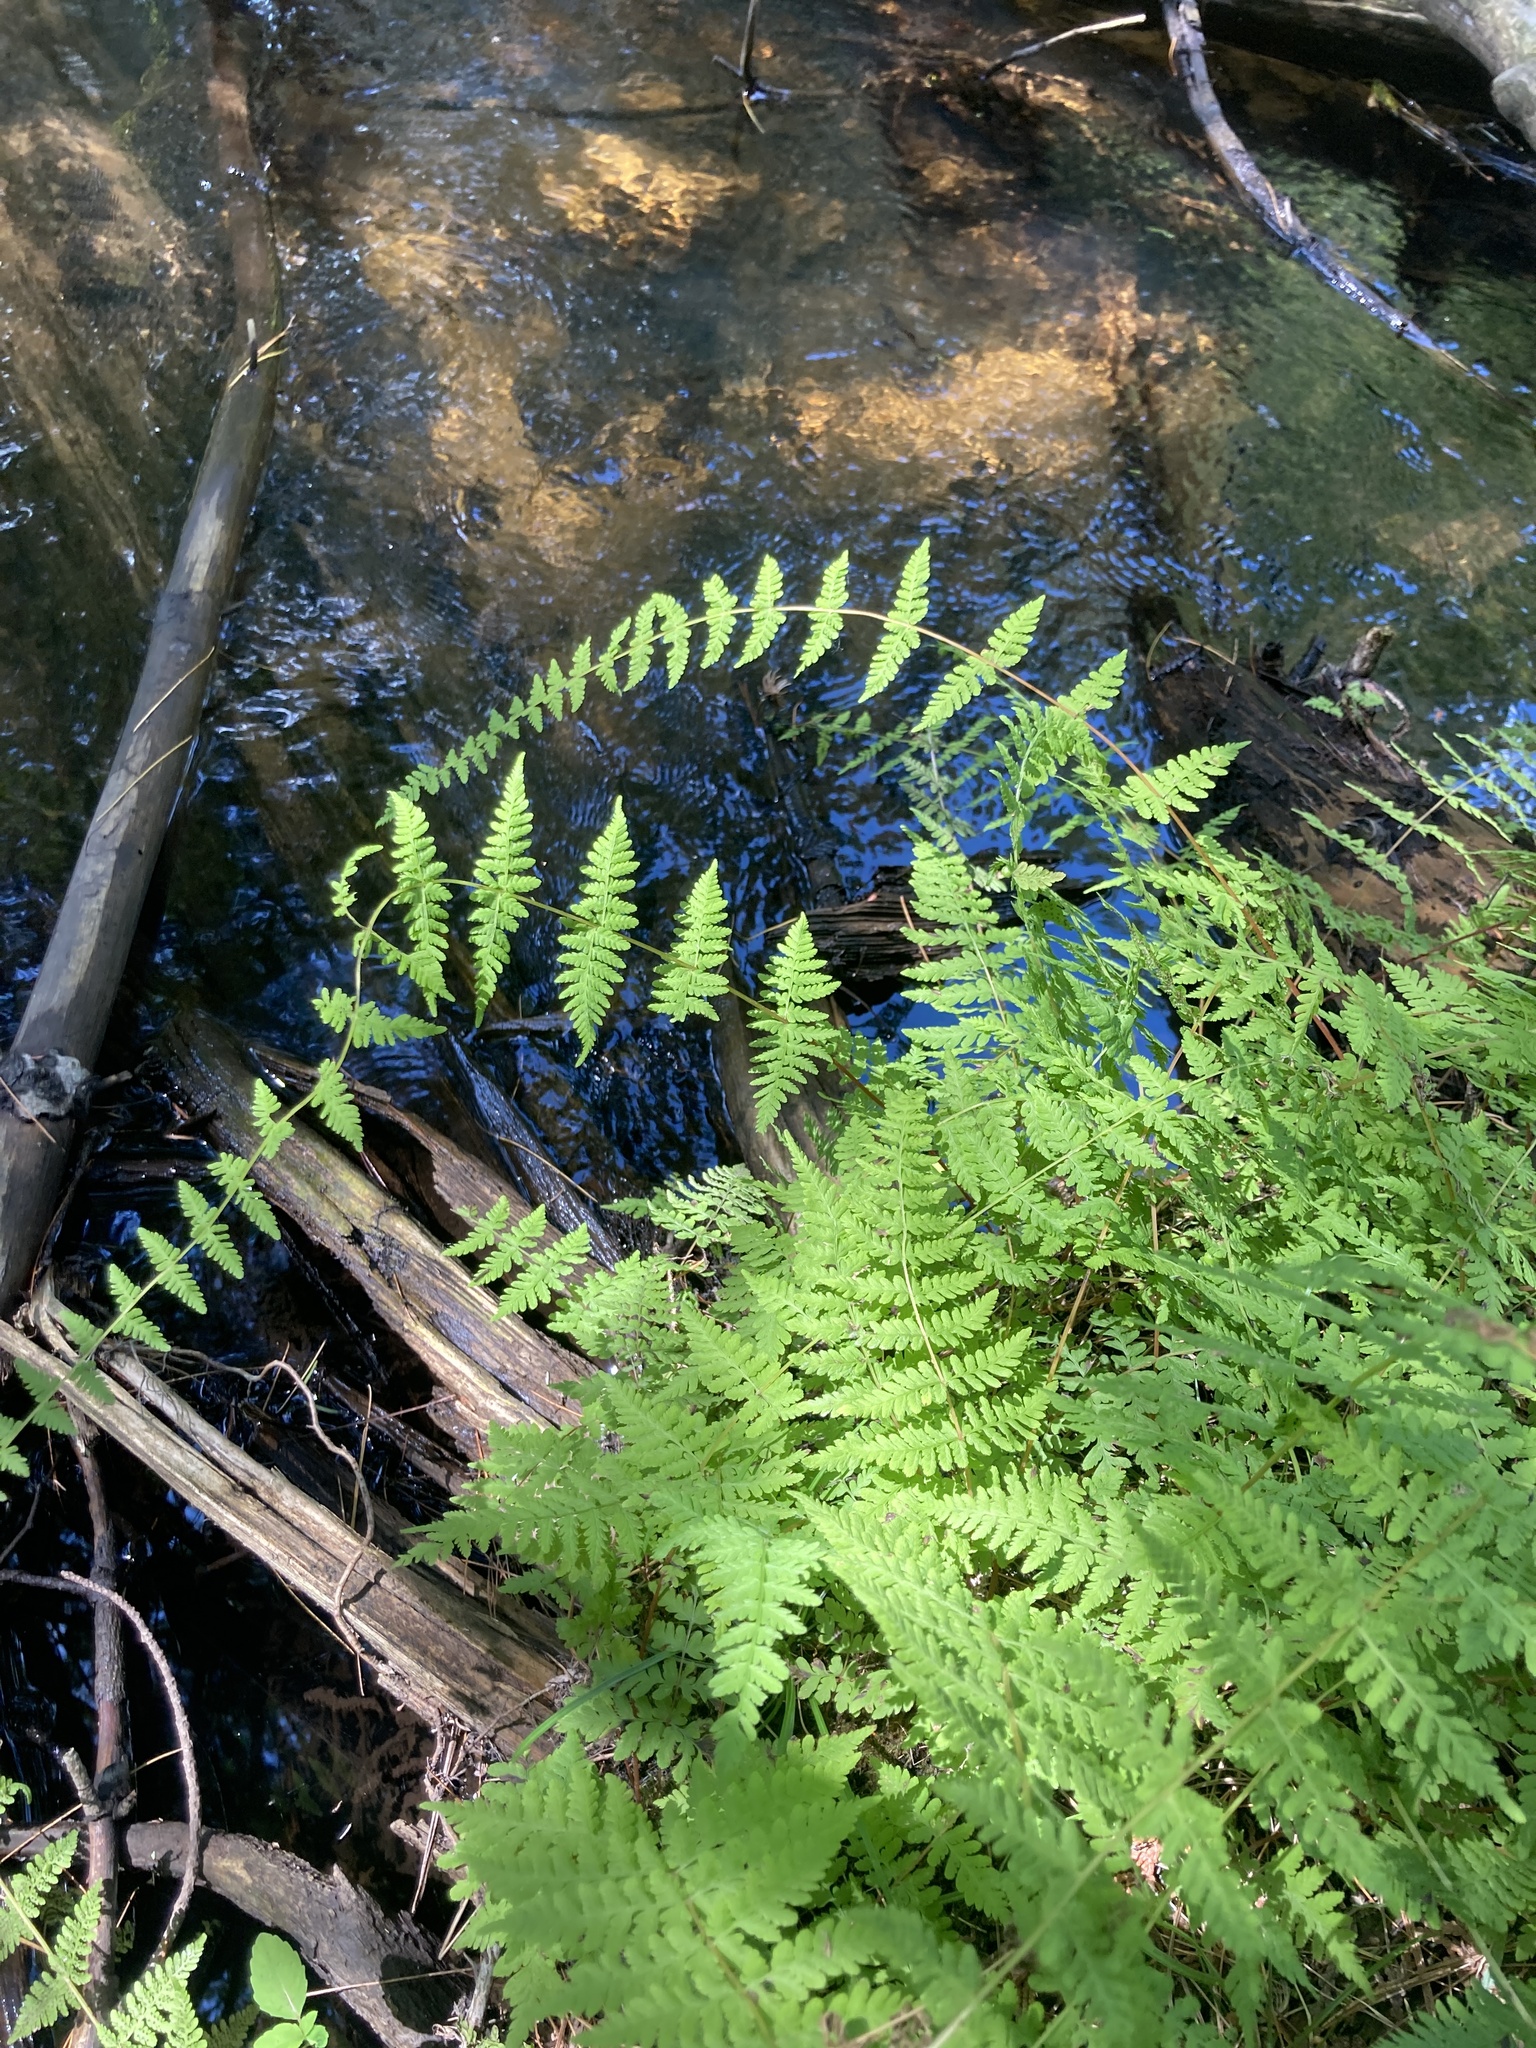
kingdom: Plantae
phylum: Tracheophyta
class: Polypodiopsida
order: Polypodiales
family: Cystopteridaceae
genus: Cystopteris
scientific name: Cystopteris bulbifera
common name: Bulblet bladder fern
